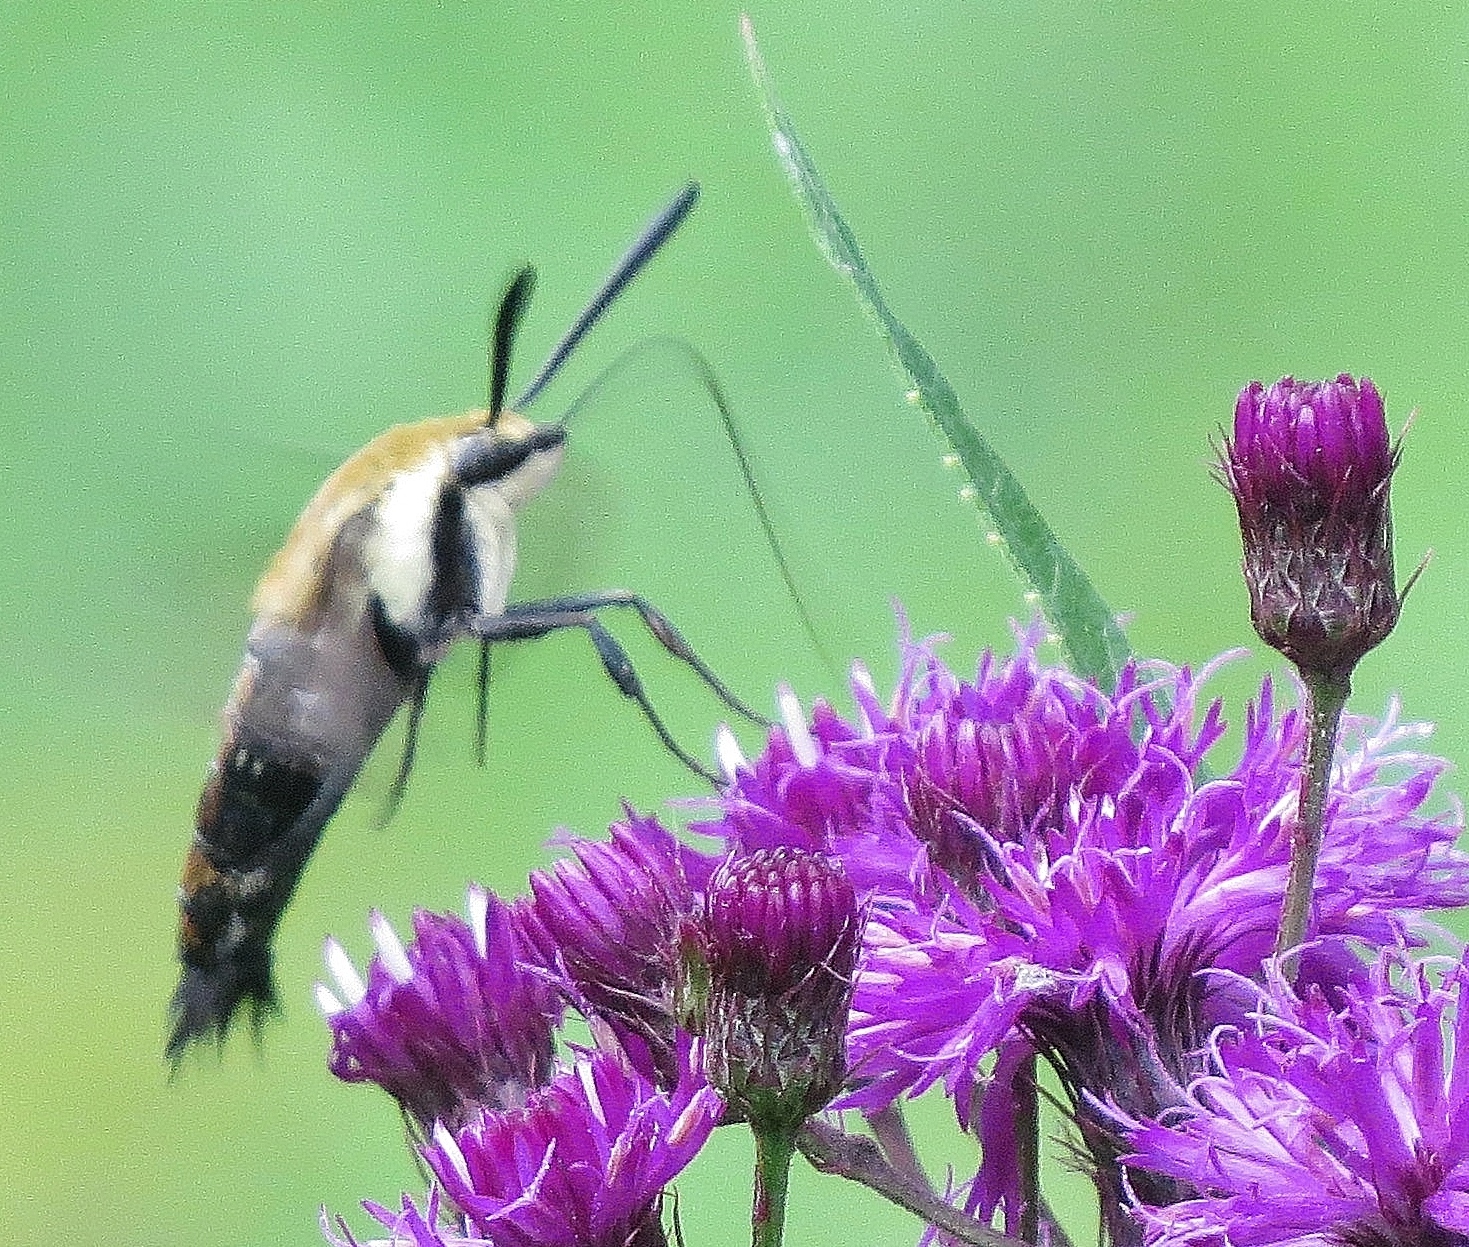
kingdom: Animalia
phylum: Arthropoda
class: Insecta
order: Lepidoptera
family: Sphingidae
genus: Hemaris
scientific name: Hemaris diffinis
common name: Bumblebee moth
